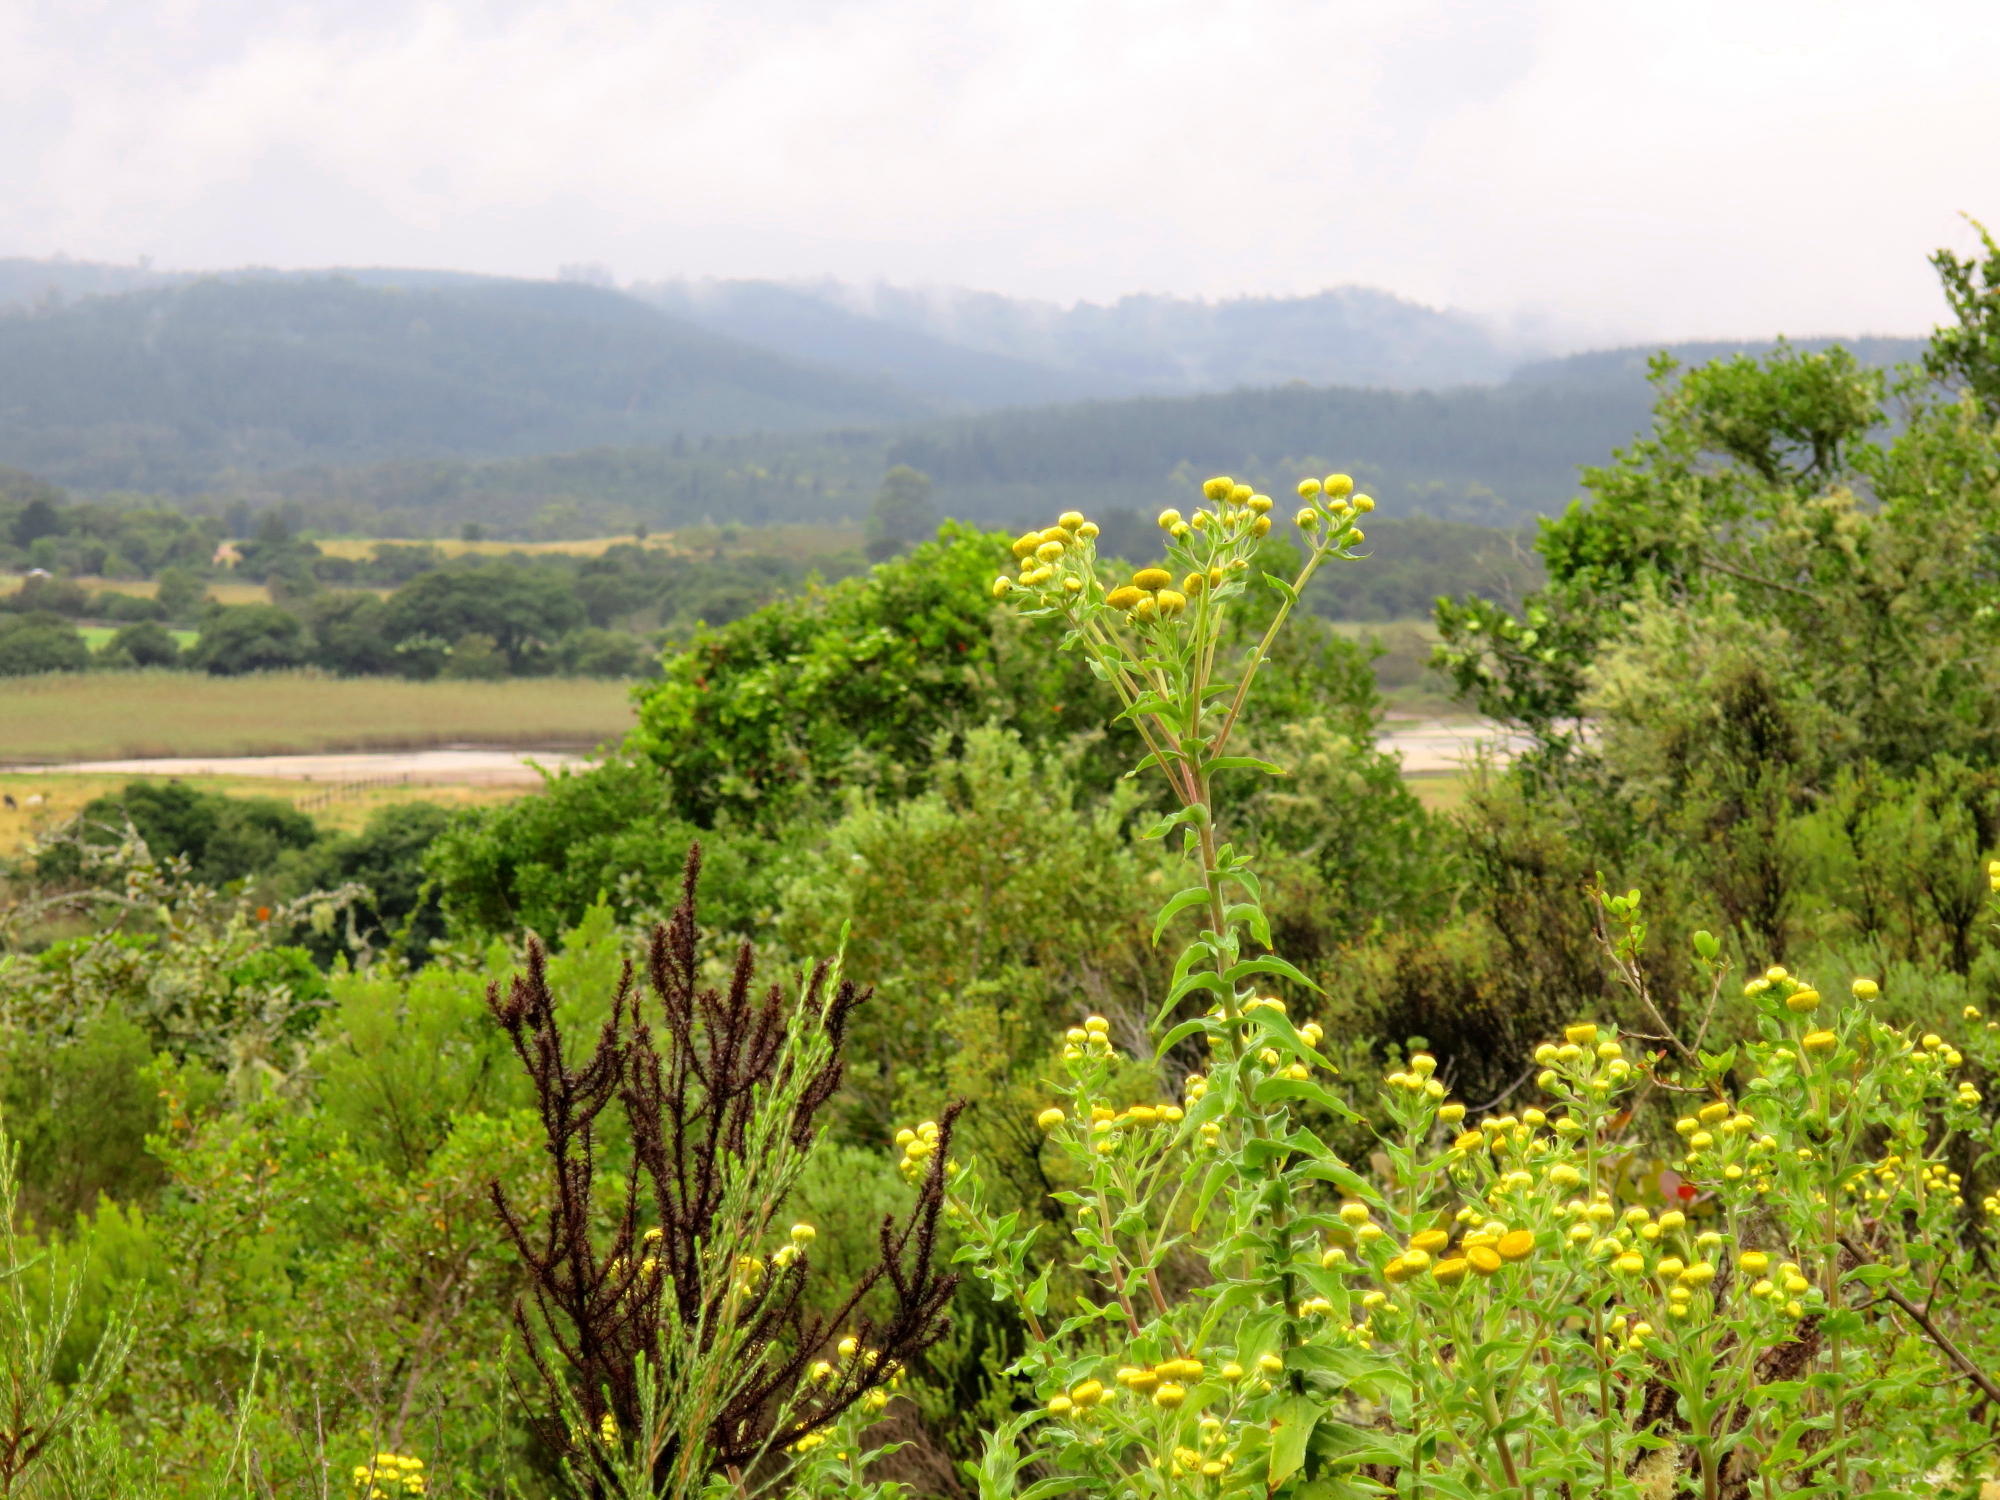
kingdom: Plantae
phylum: Tracheophyta
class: Magnoliopsida
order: Asterales
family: Asteraceae
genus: Helichrysum
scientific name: Helichrysum foetidum
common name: Stinking everlasting
